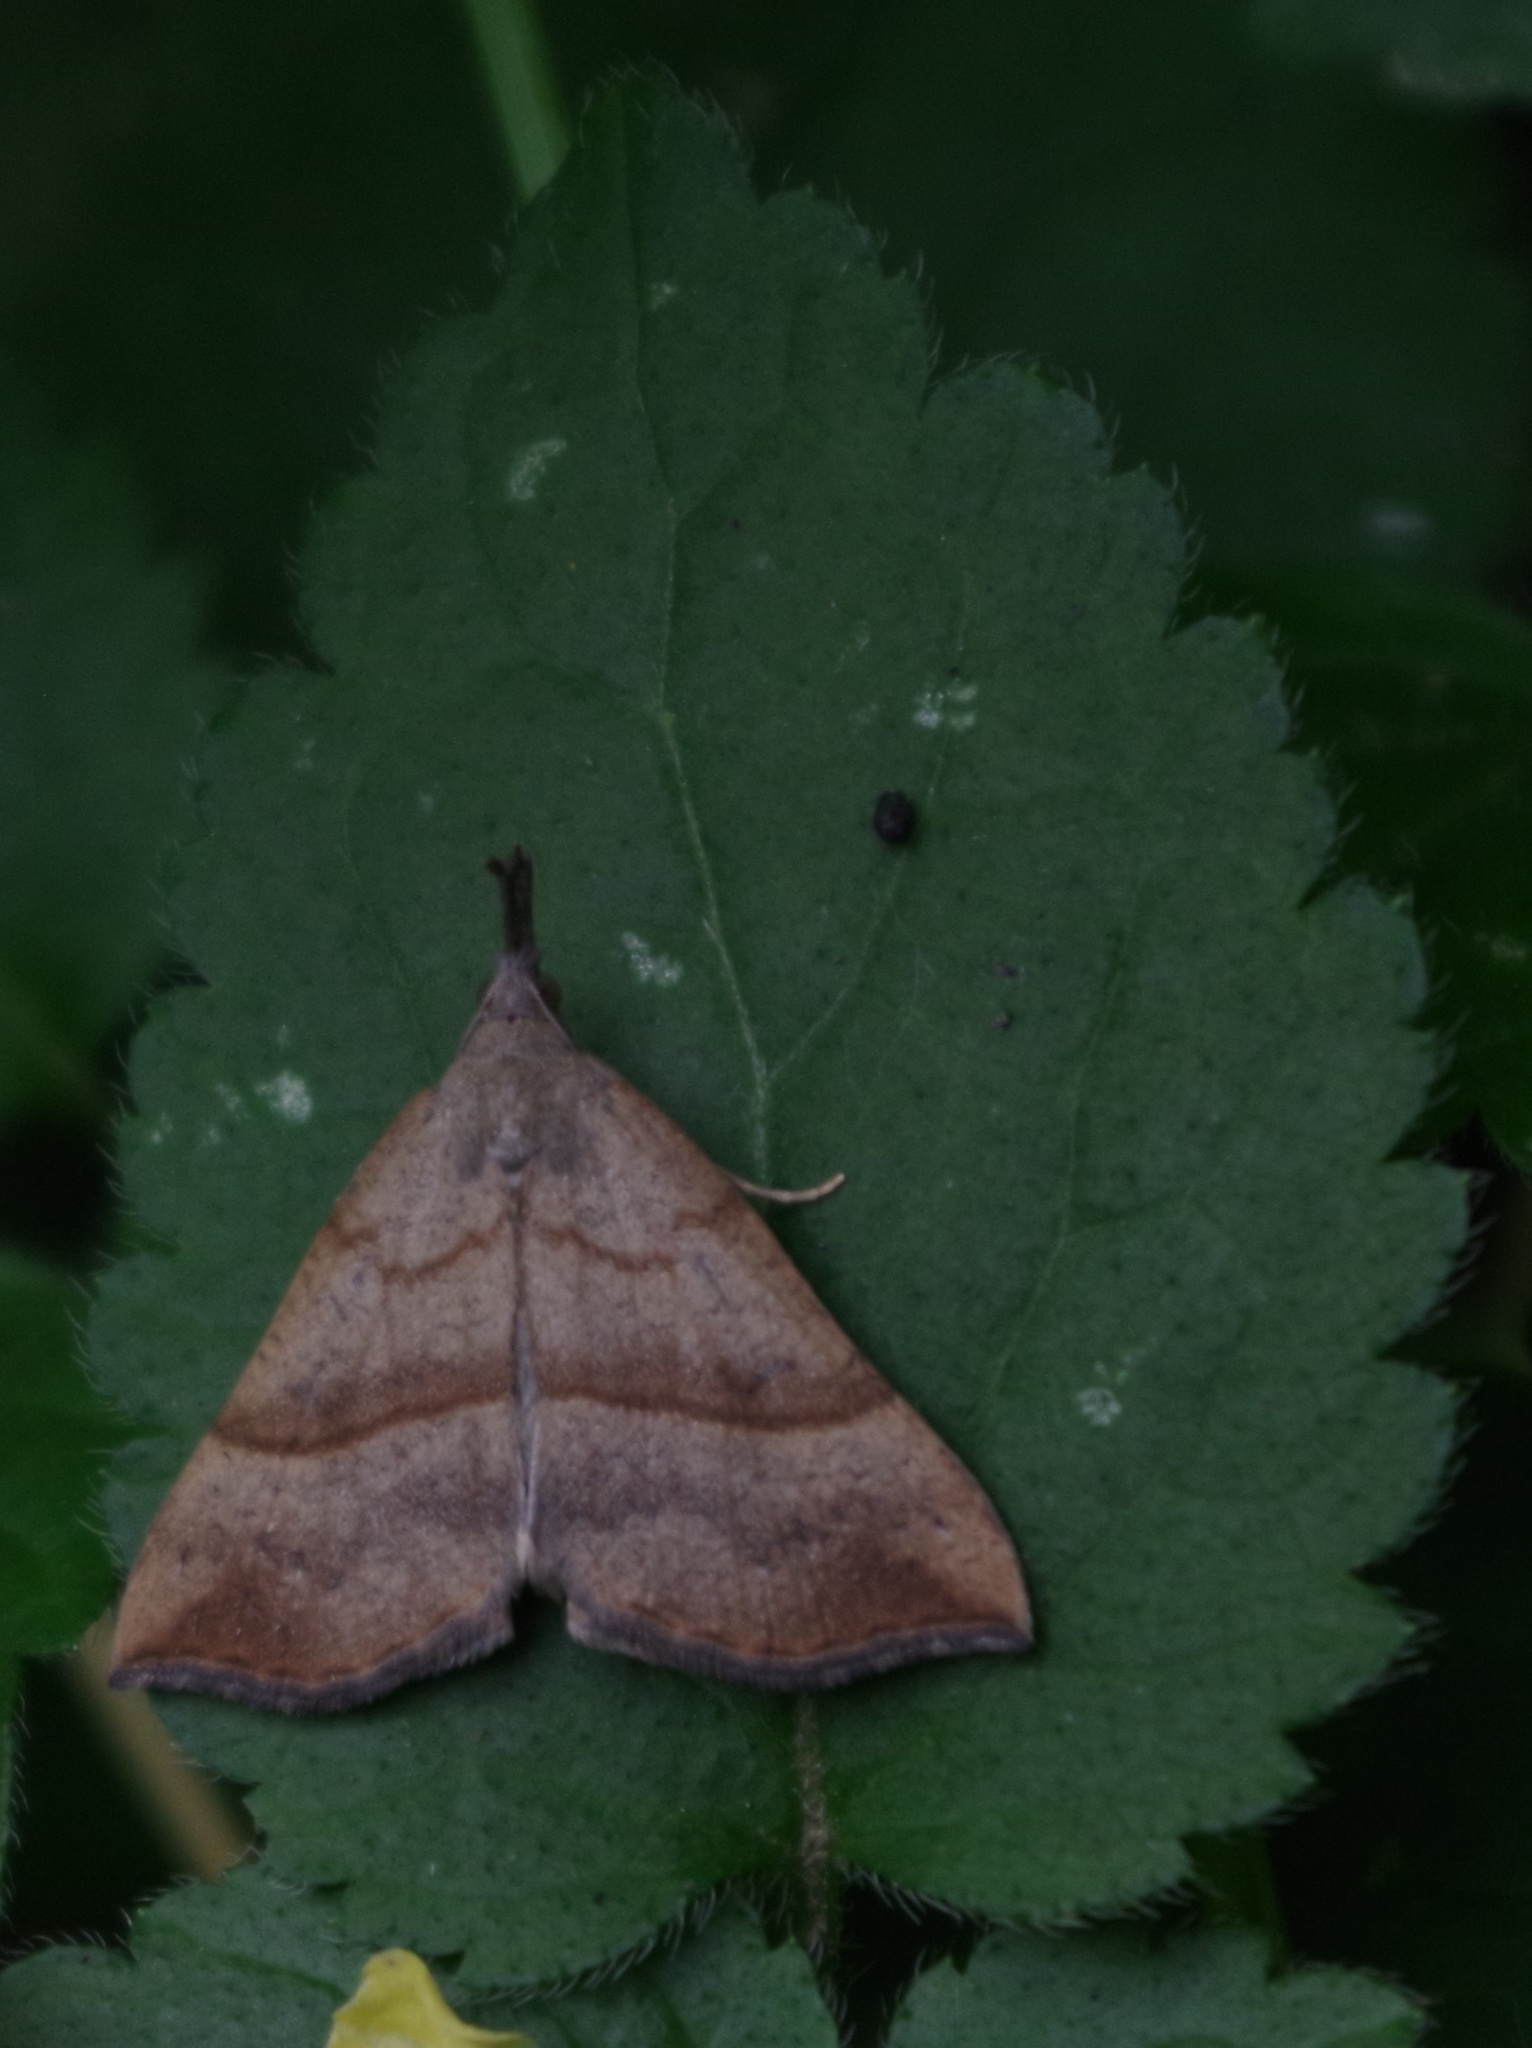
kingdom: Animalia
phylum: Arthropoda
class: Insecta
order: Lepidoptera
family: Erebidae
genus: Hypena
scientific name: Hypena proboscidalis
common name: Snout
